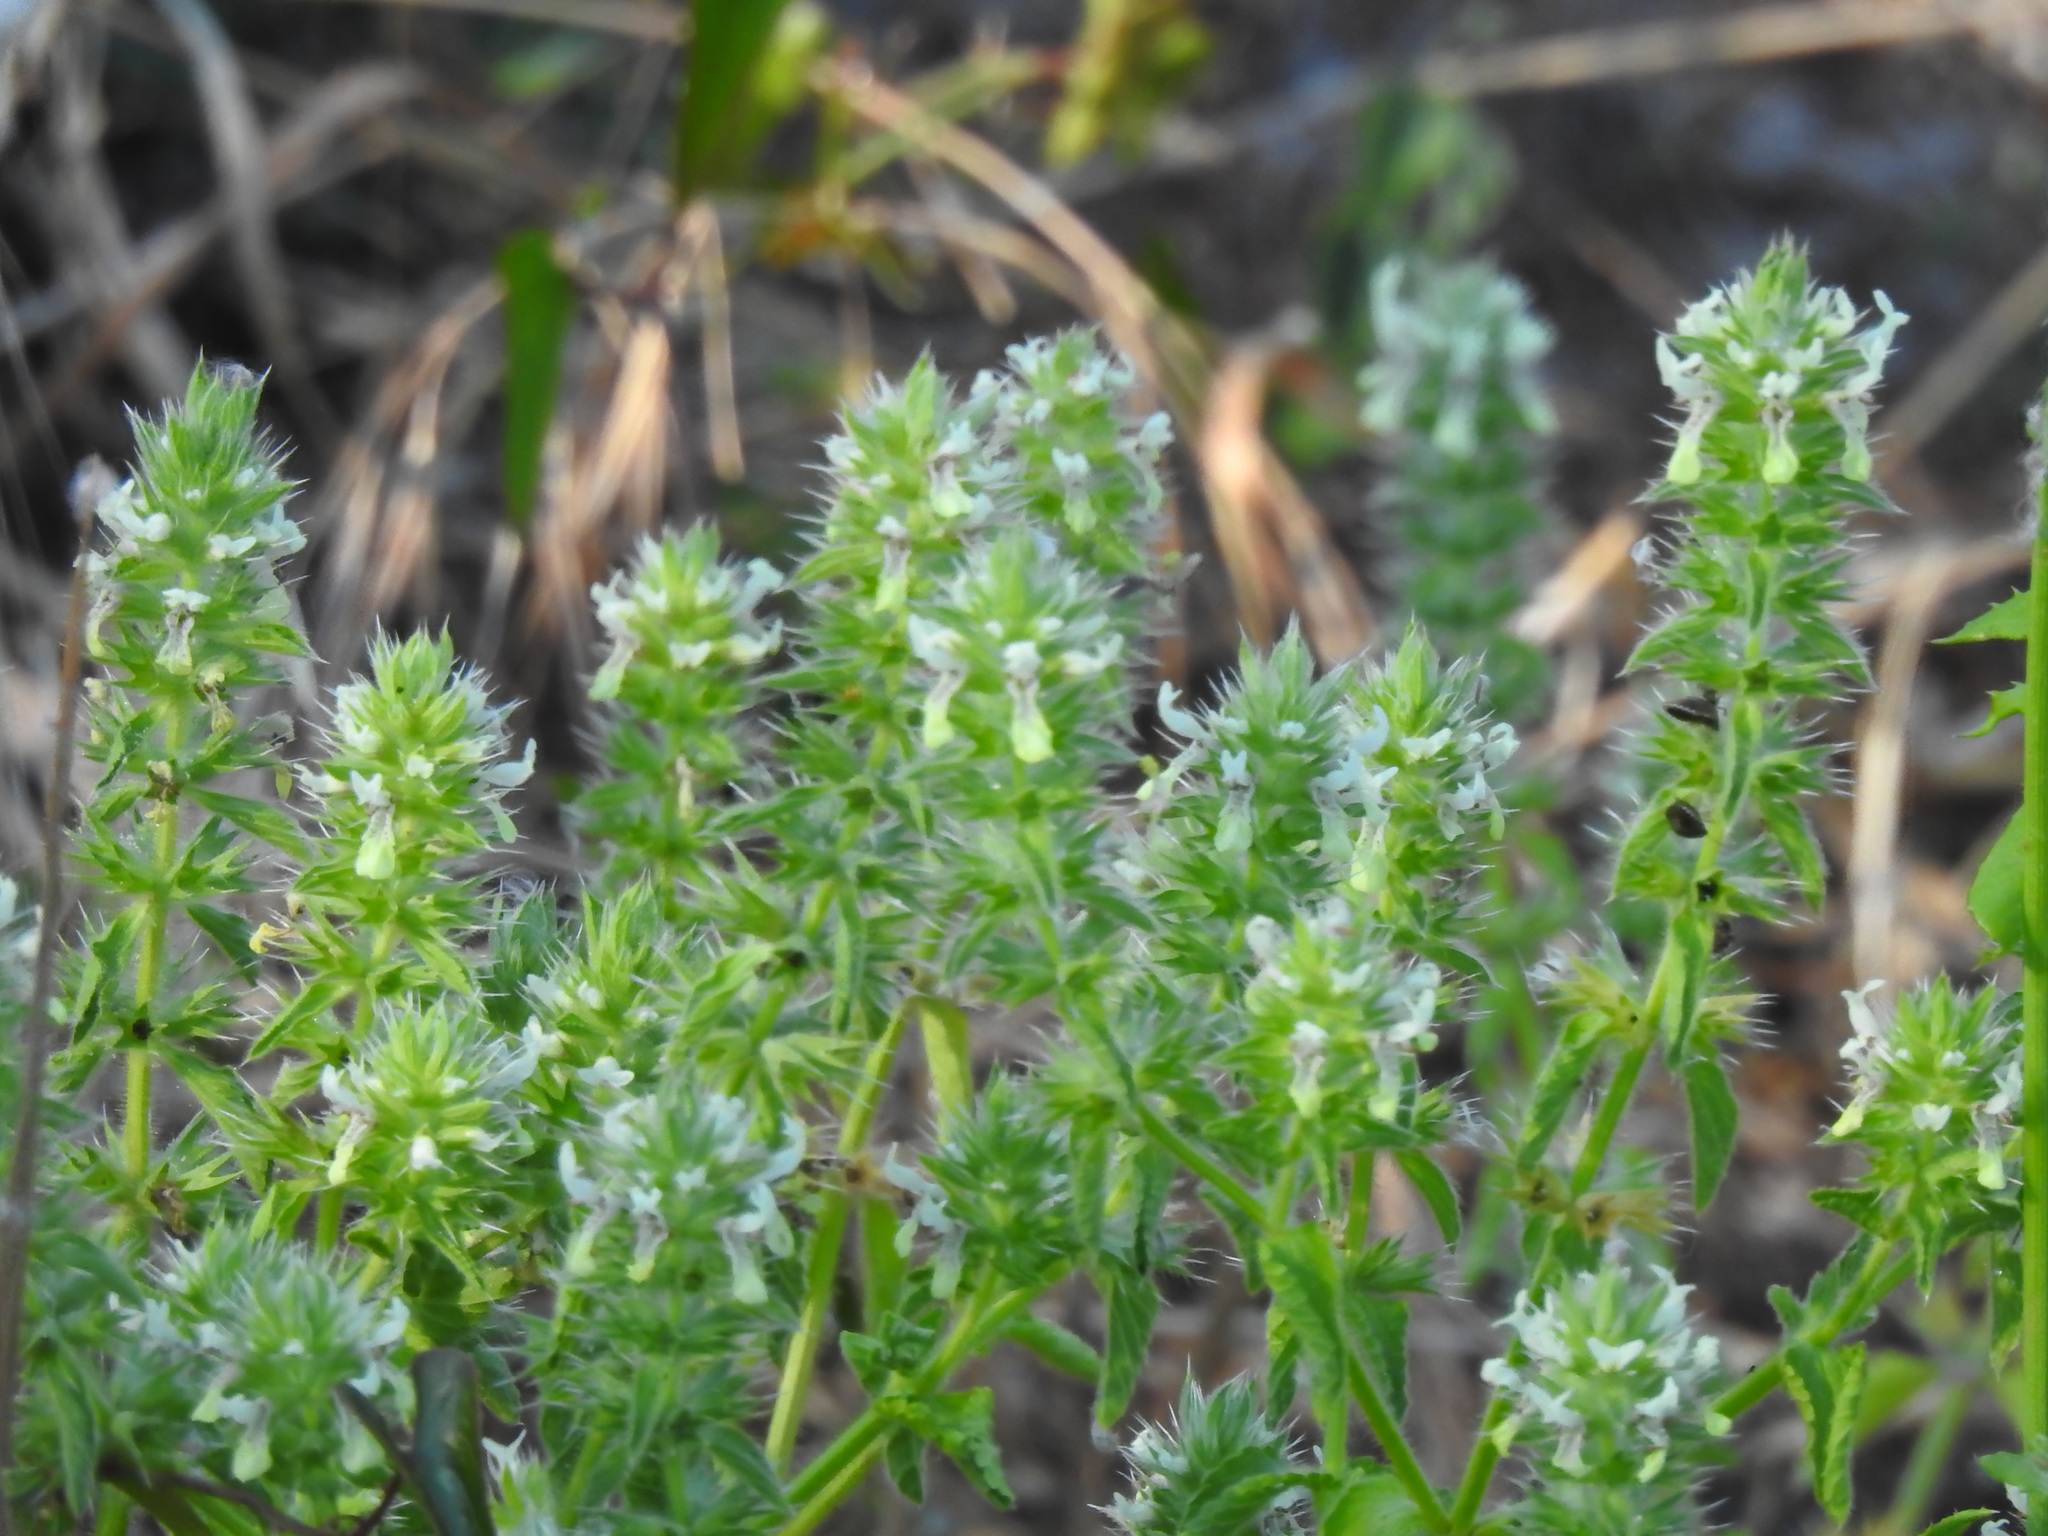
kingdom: Plantae
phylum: Tracheophyta
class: Magnoliopsida
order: Lamiales
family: Lamiaceae
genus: Stachys
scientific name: Stachys ocymastrum
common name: Italian hedgenettle
